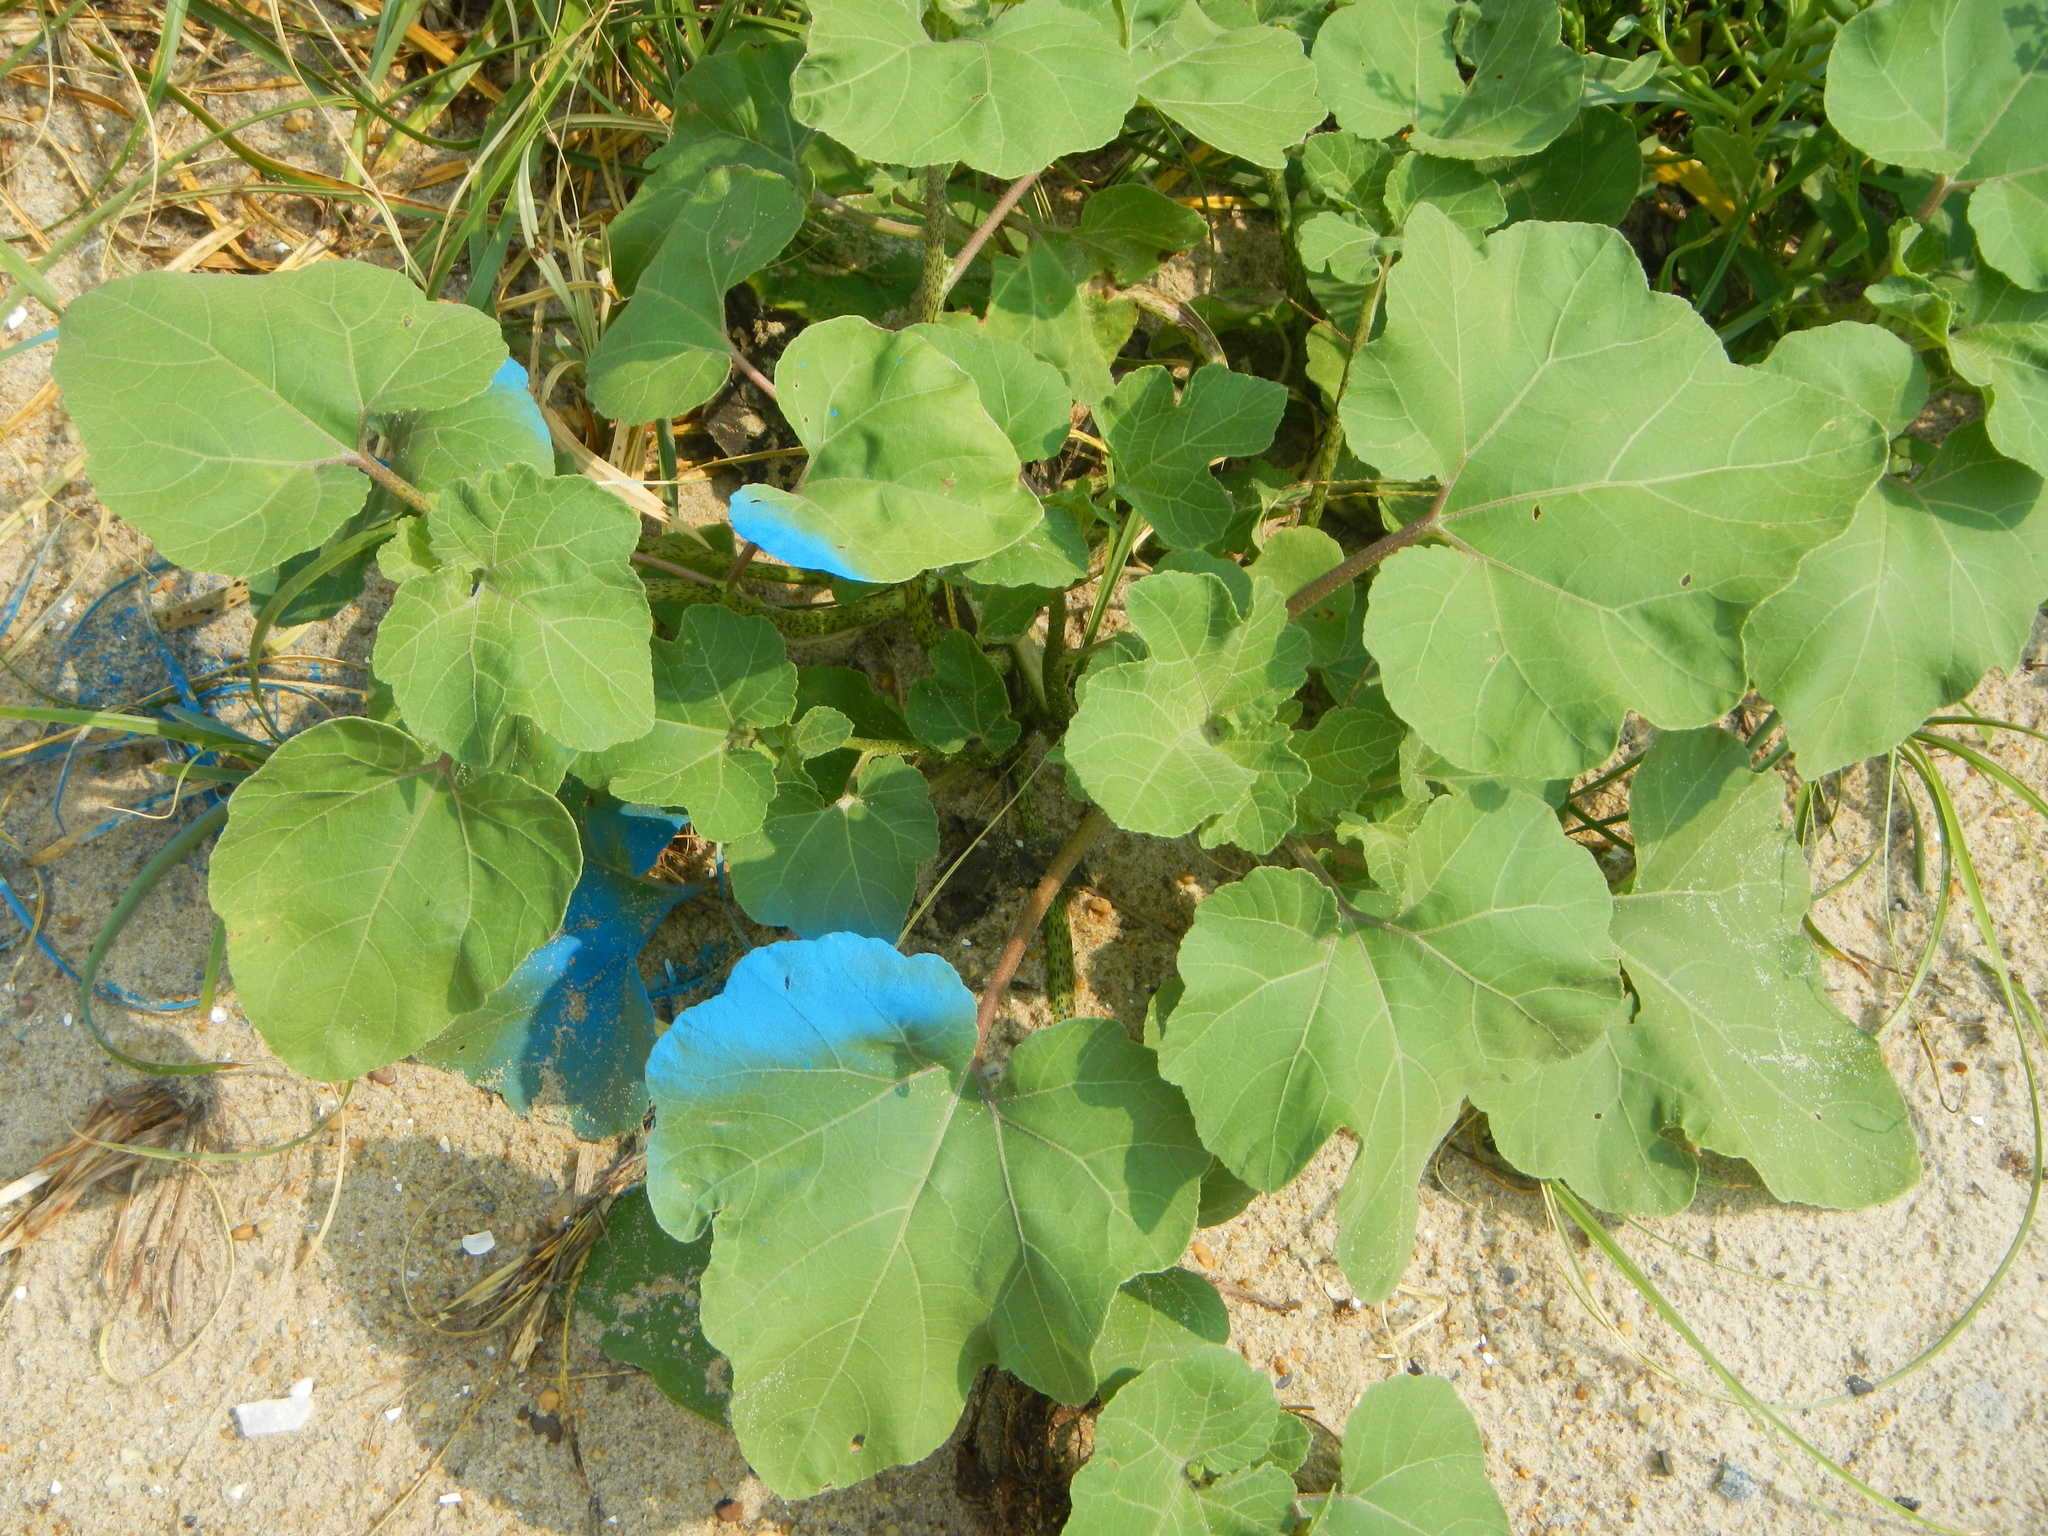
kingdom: Plantae
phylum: Tracheophyta
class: Magnoliopsida
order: Asterales
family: Asteraceae
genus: Xanthium
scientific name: Xanthium strumarium
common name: Rough cocklebur
